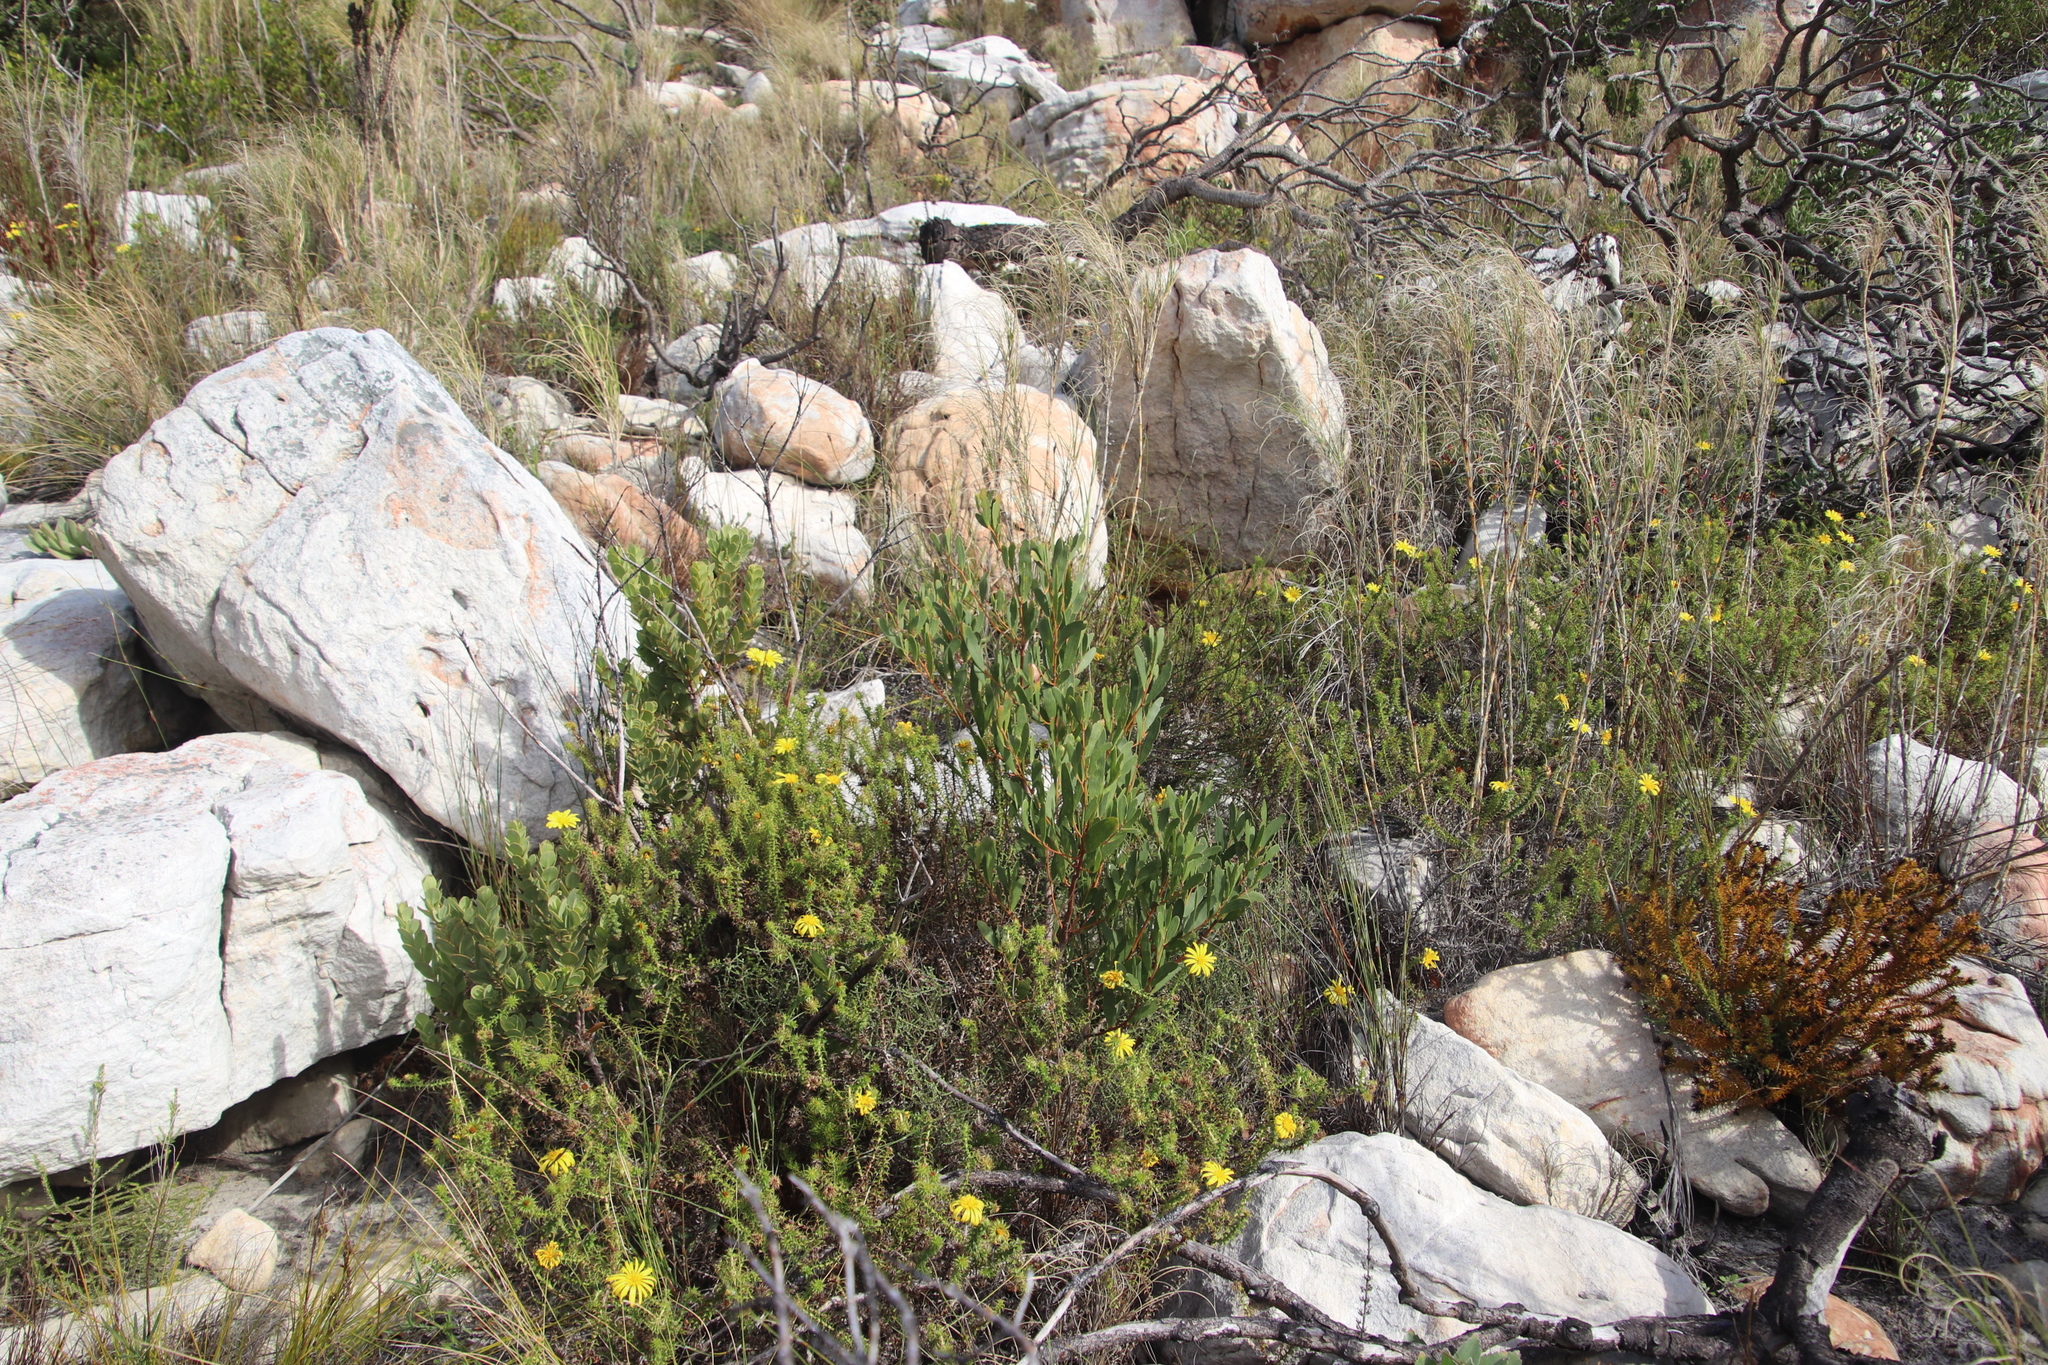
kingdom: Plantae
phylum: Tracheophyta
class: Magnoliopsida
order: Fabales
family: Fabaceae
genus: Acacia
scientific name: Acacia cyclops
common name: Coastal wattle
